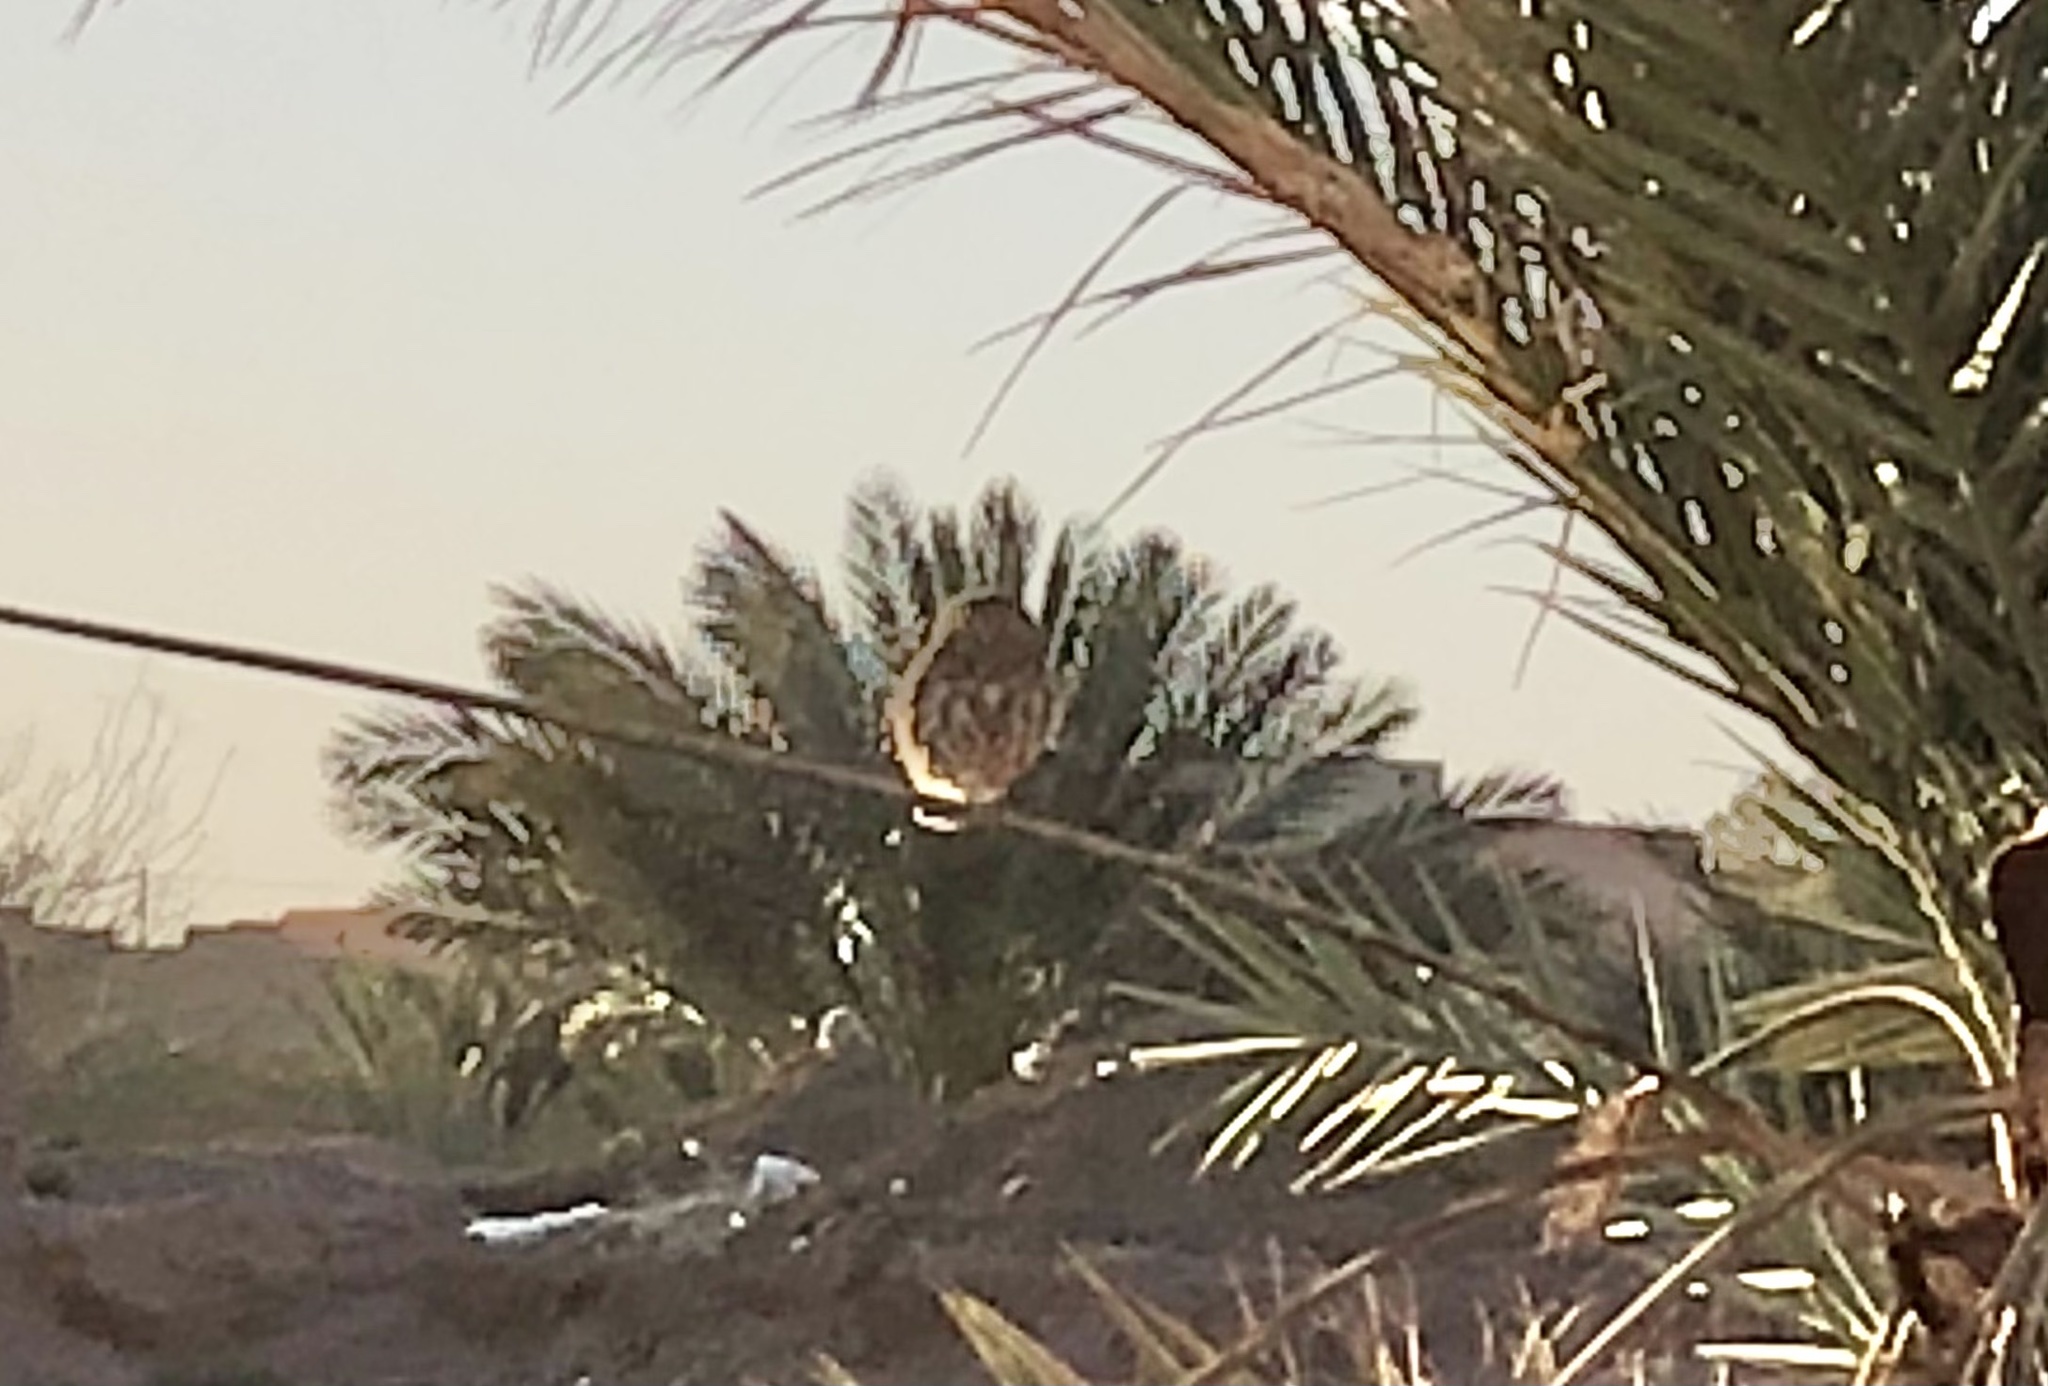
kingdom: Animalia
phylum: Chordata
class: Aves
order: Strigiformes
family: Strigidae
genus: Athene
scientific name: Athene noctua
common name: Little owl
